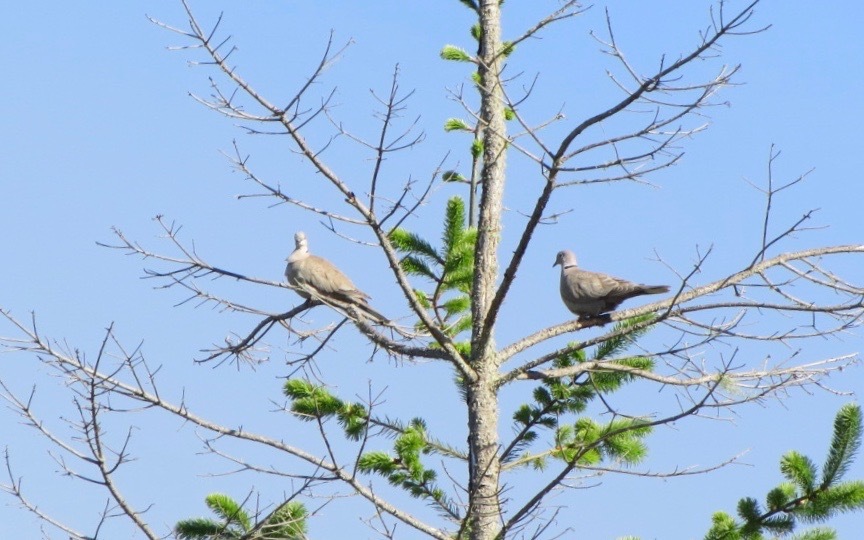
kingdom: Animalia
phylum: Chordata
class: Aves
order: Columbiformes
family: Columbidae
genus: Streptopelia
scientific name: Streptopelia decaocto
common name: Eurasian collared dove
